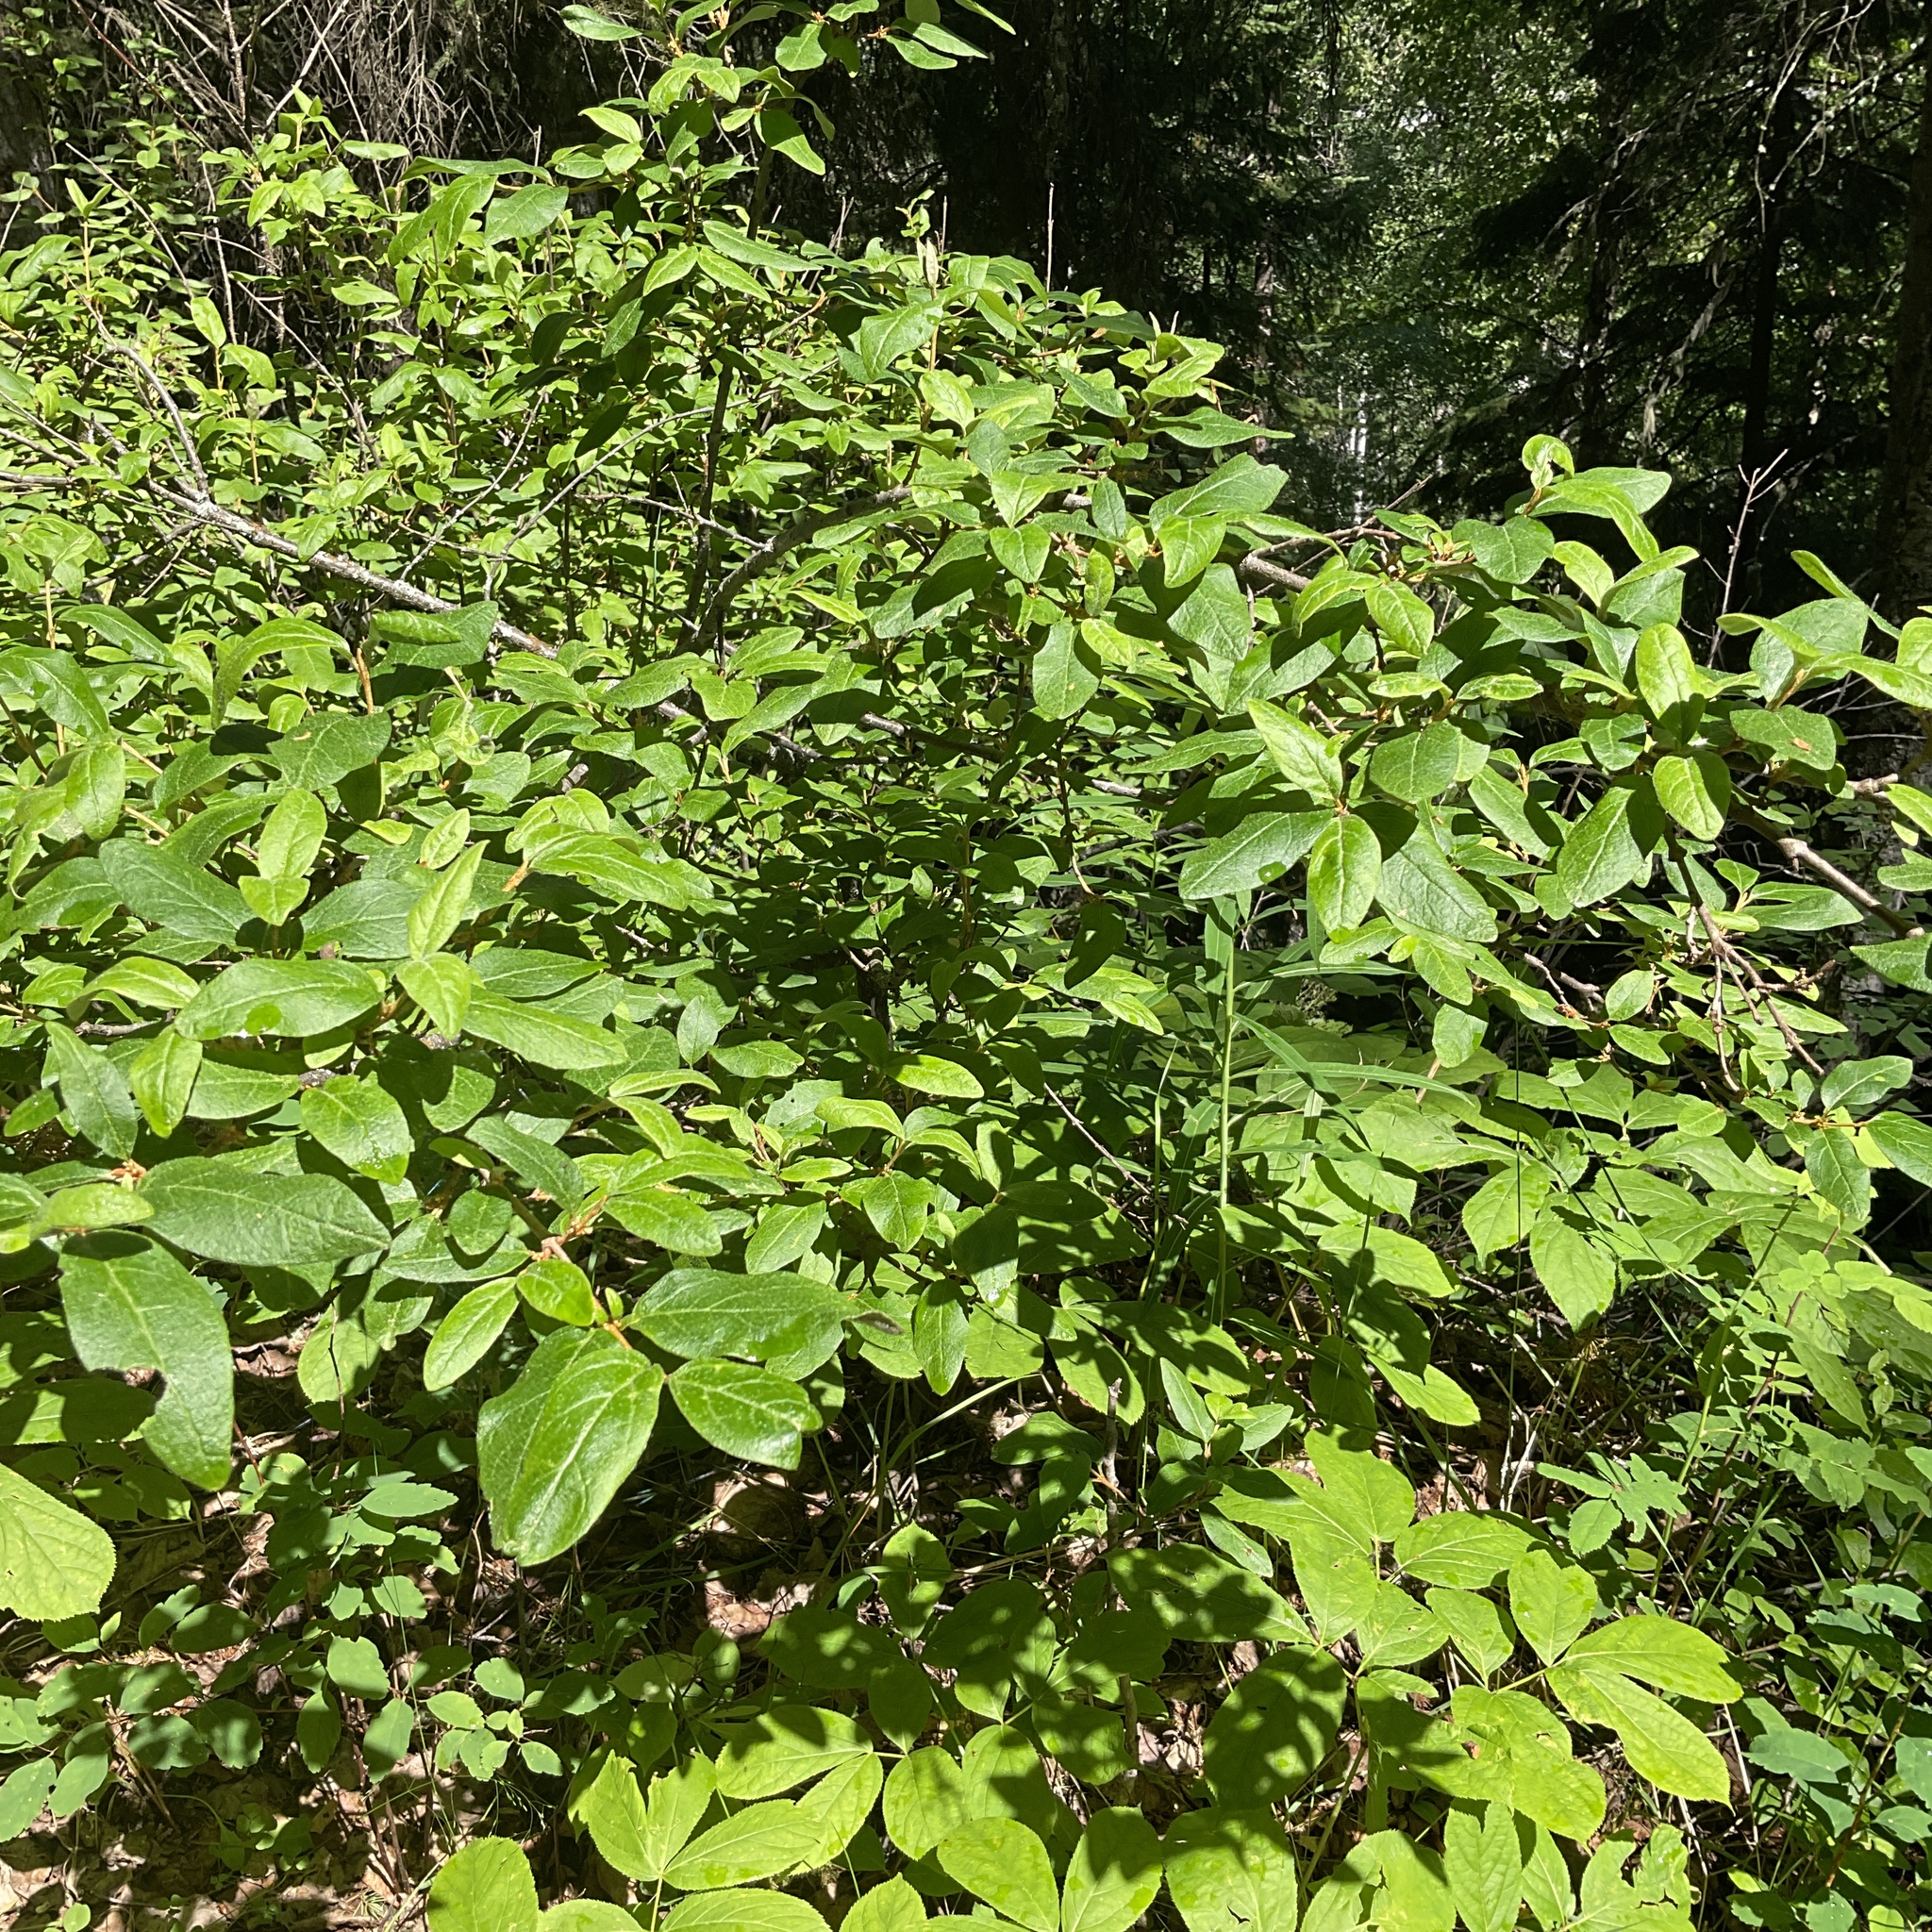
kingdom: Plantae
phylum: Tracheophyta
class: Magnoliopsida
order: Rosales
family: Elaeagnaceae
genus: Shepherdia
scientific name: Shepherdia canadensis
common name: Soapberry
